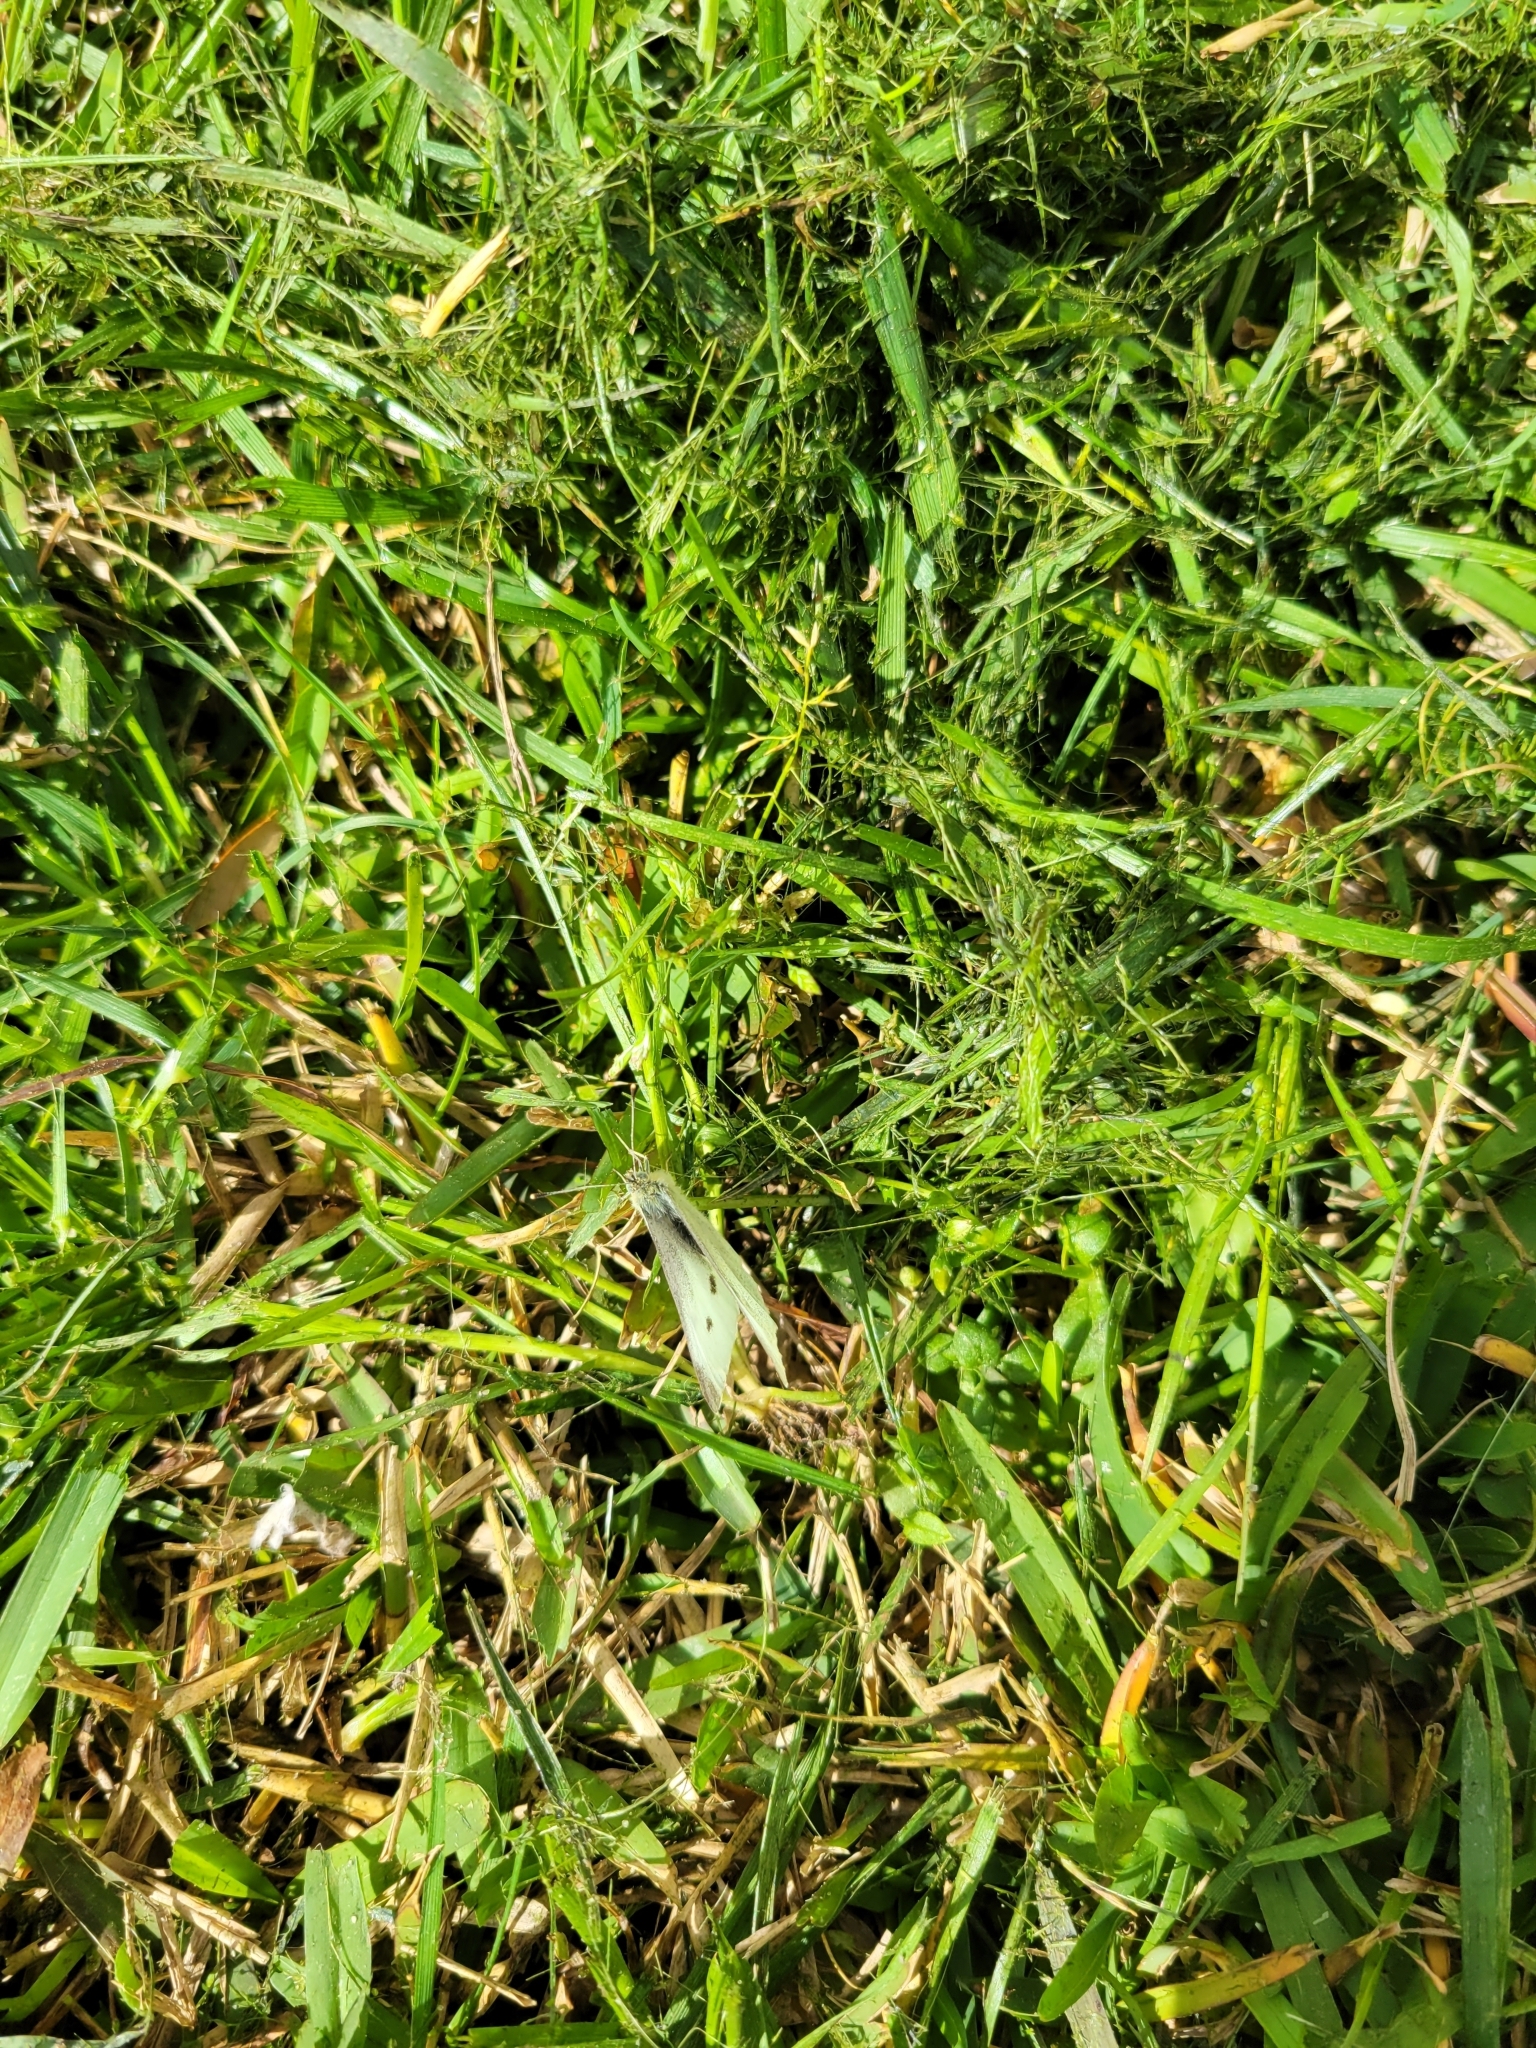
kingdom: Animalia
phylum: Arthropoda
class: Insecta
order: Lepidoptera
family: Pieridae
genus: Pieris
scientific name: Pieris rapae
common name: Small white
